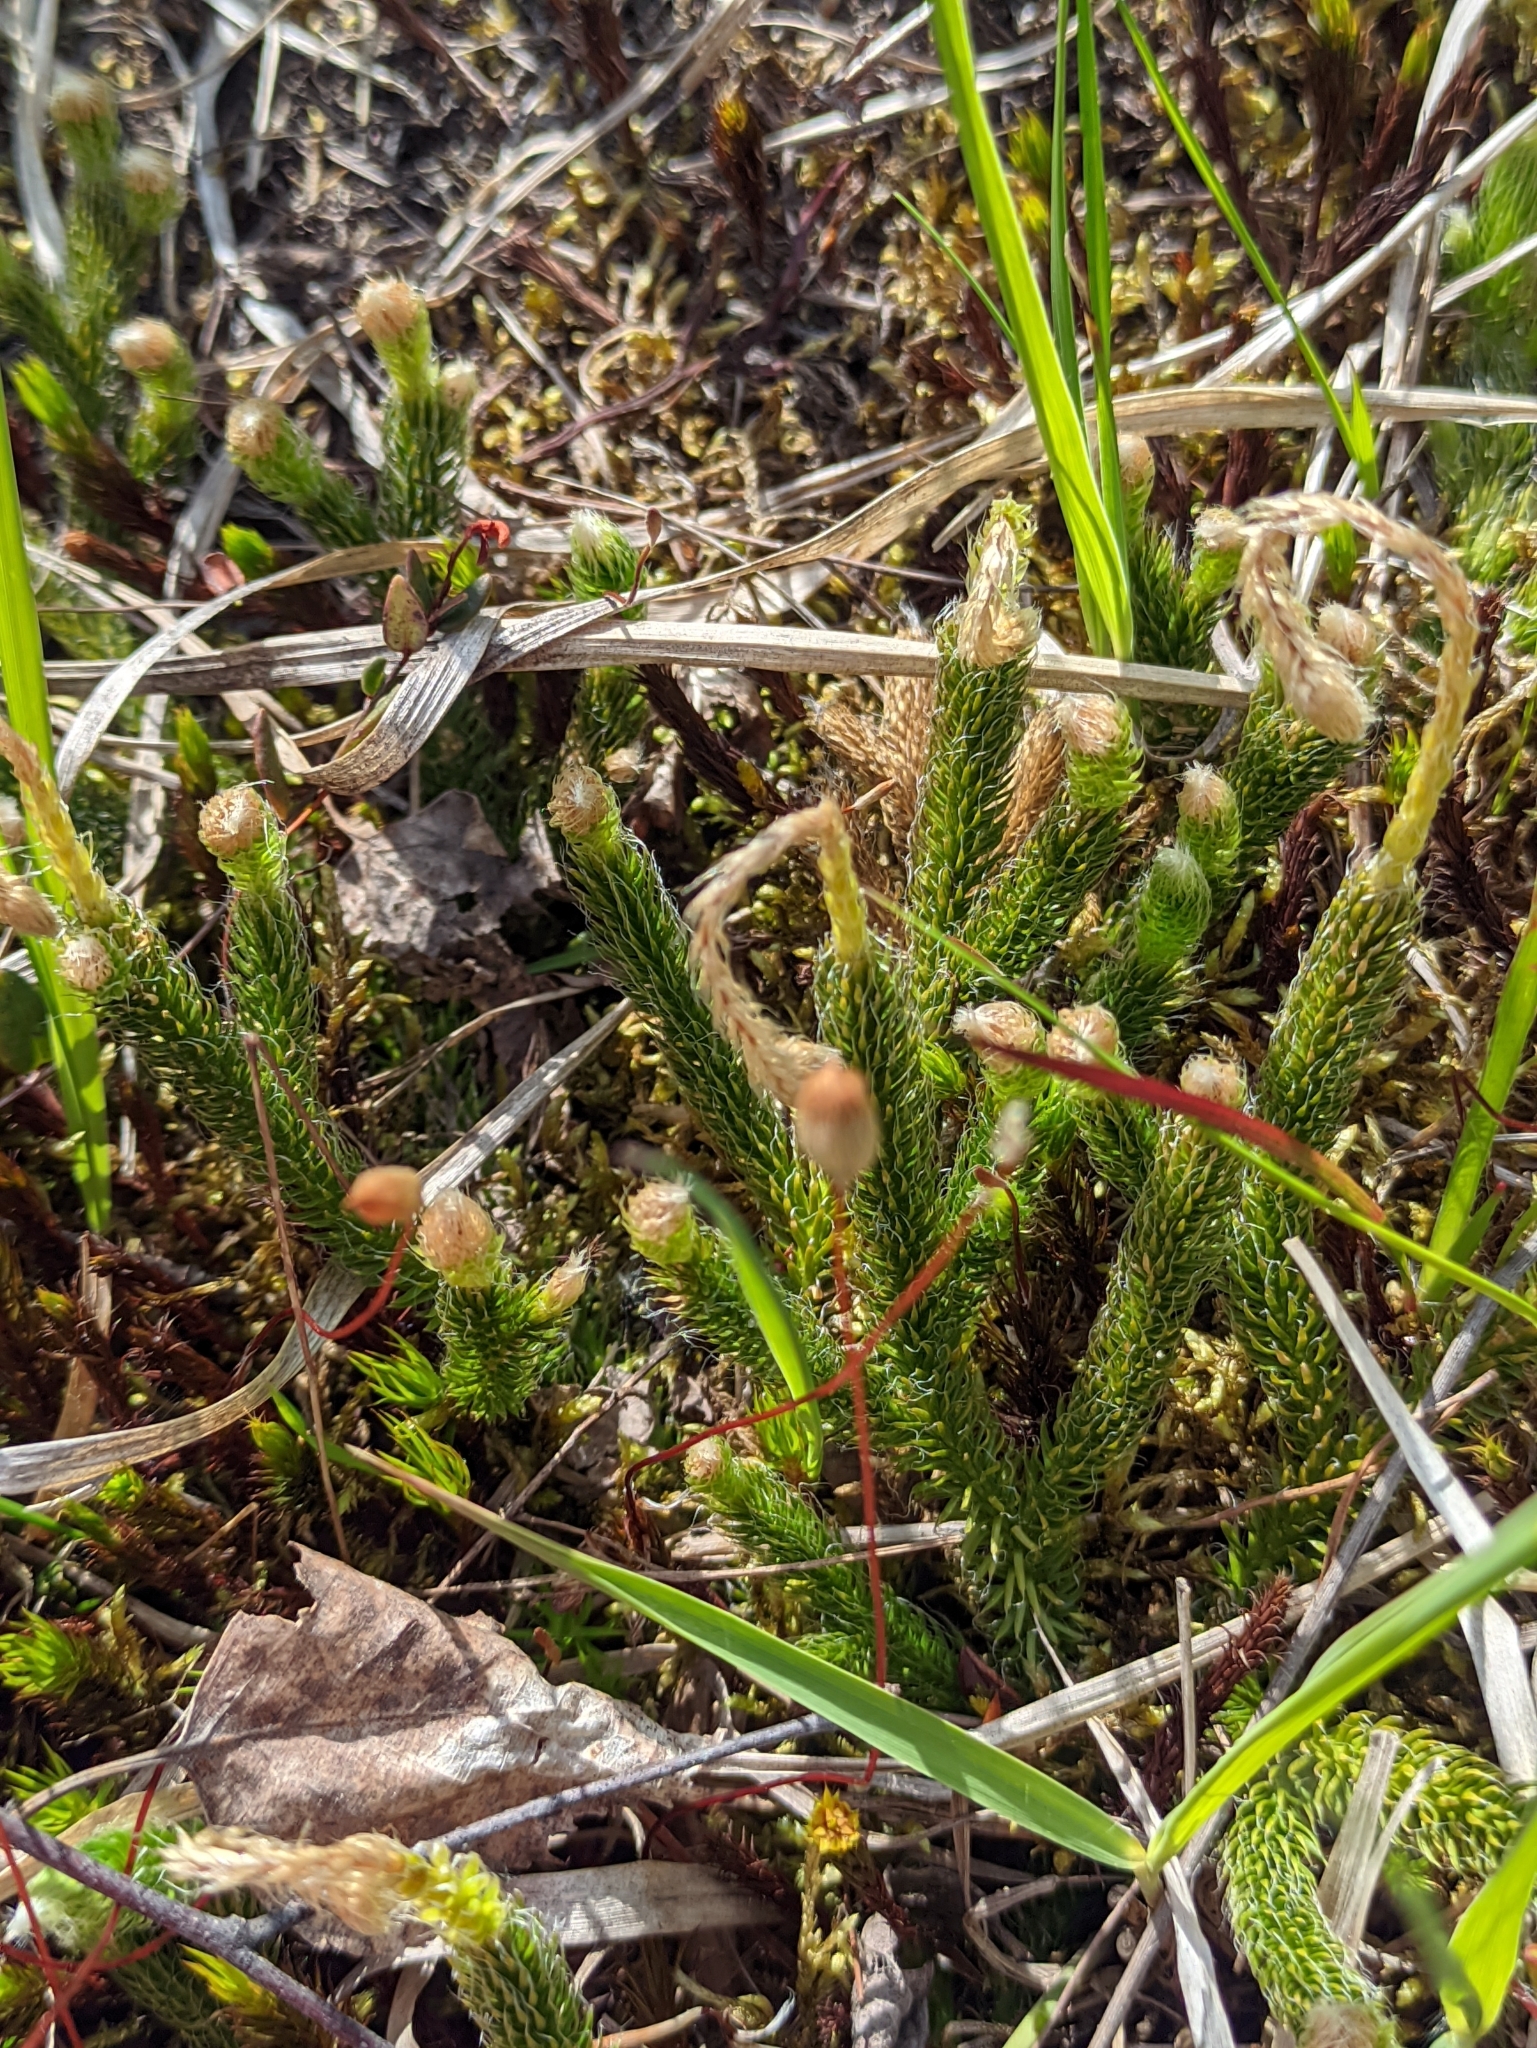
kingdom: Plantae
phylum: Tracheophyta
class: Lycopodiopsida
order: Lycopodiales
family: Lycopodiaceae
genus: Lycopodium
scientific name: Lycopodium clavatum
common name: Stag's-horn clubmoss
